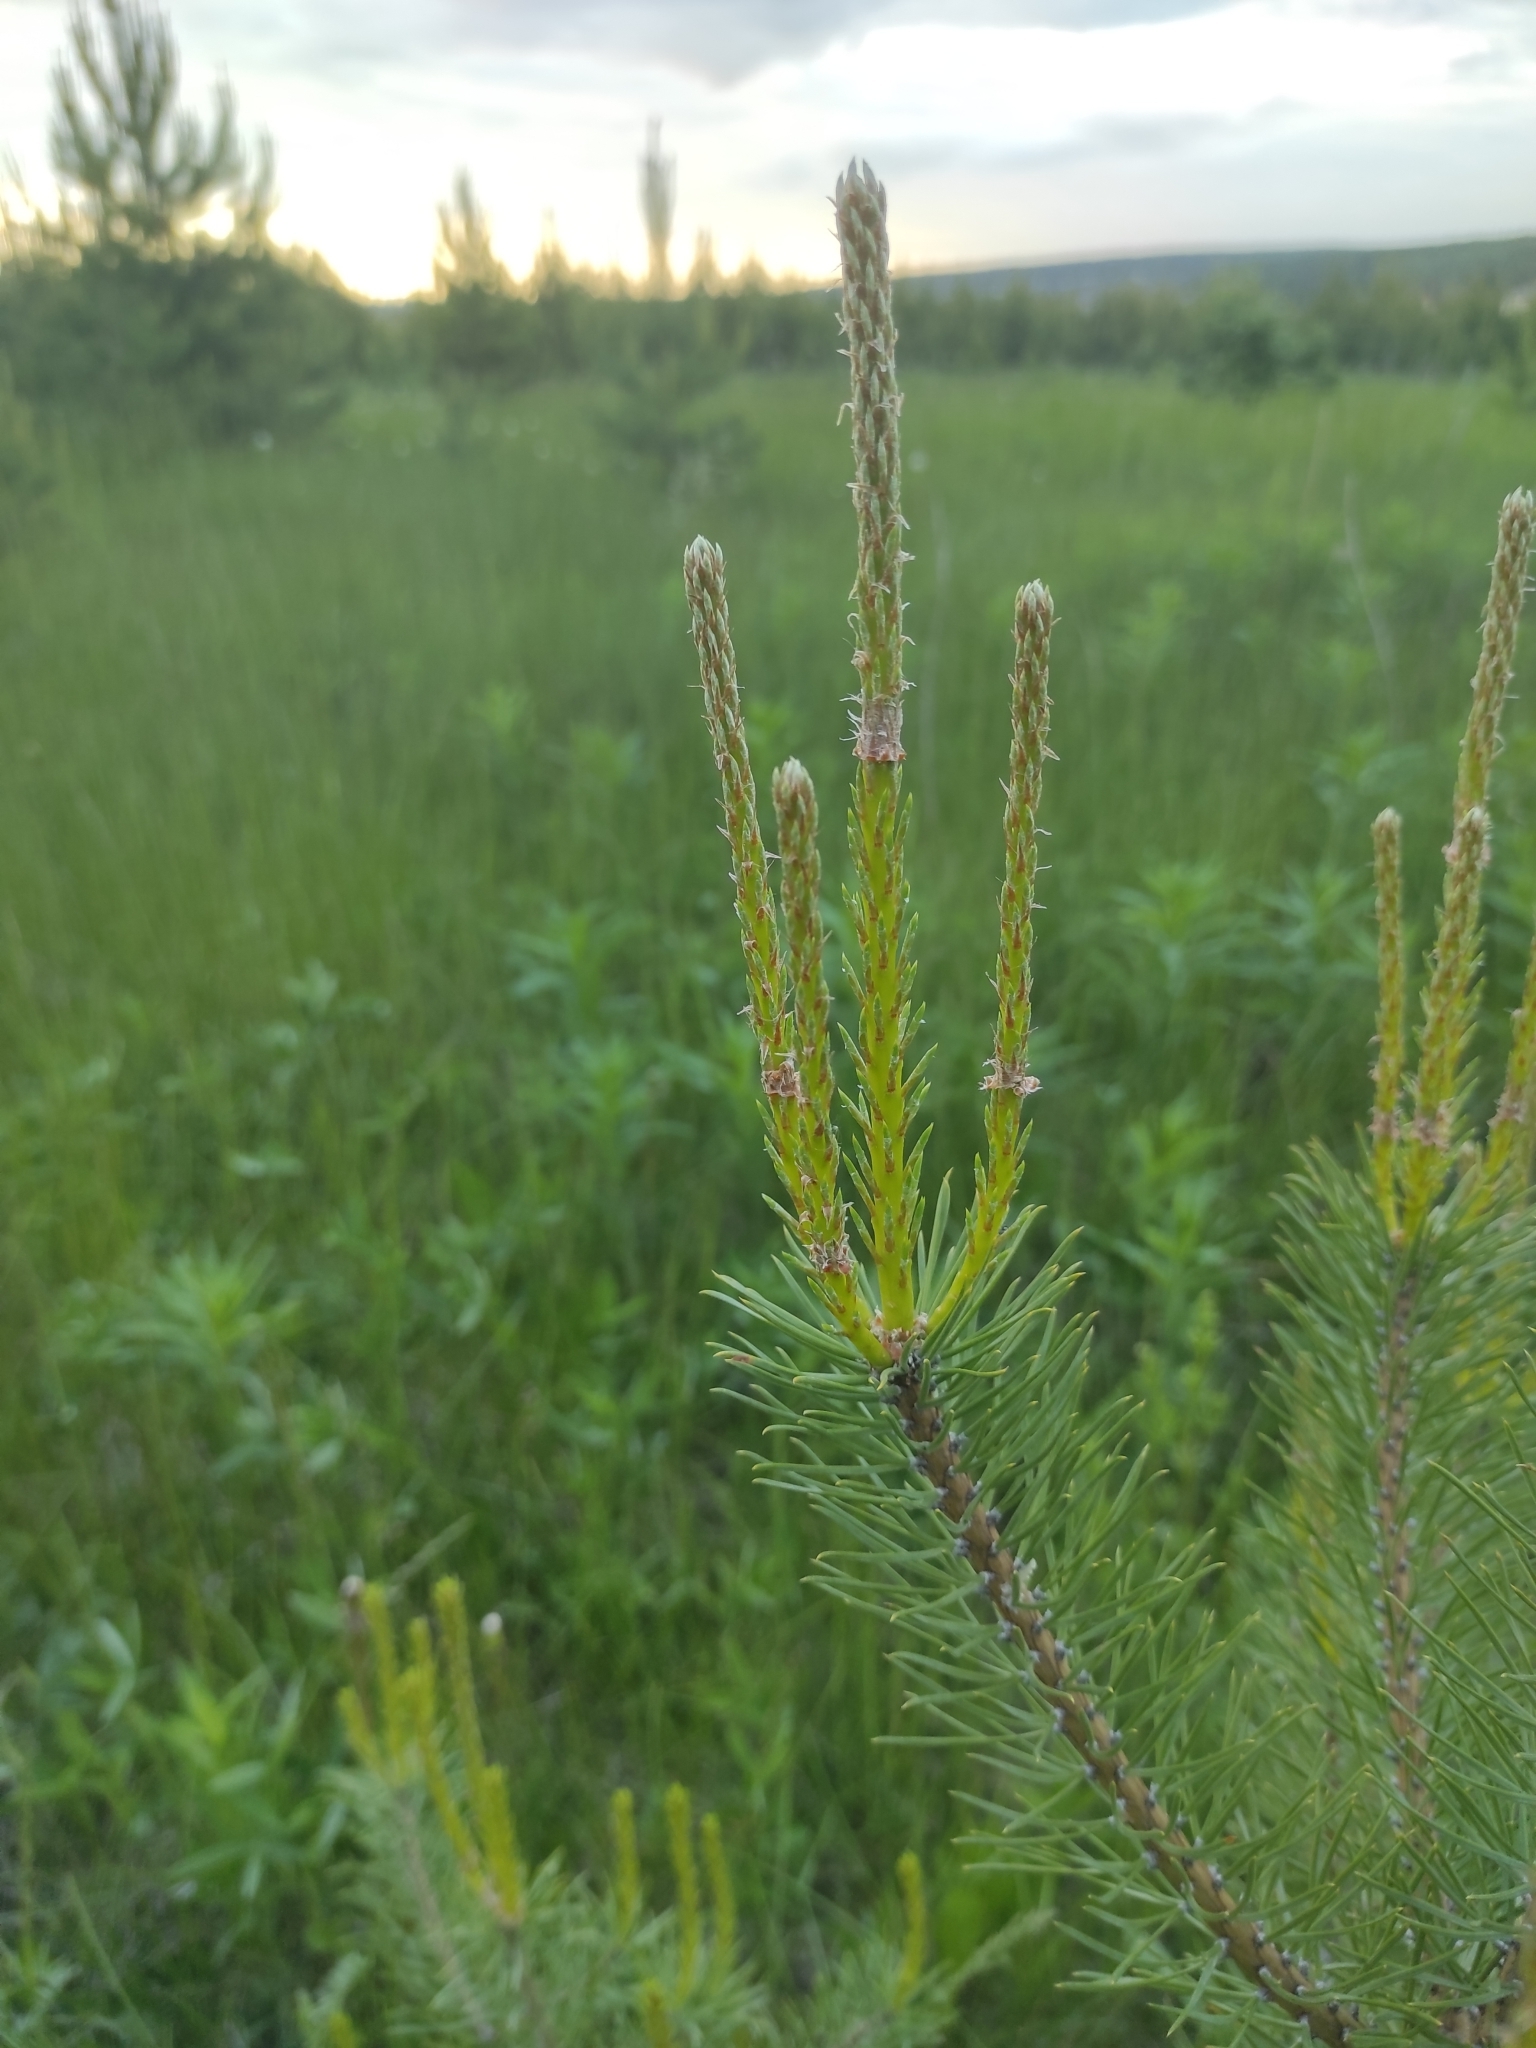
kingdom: Plantae
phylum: Tracheophyta
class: Pinopsida
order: Pinales
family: Pinaceae
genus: Pinus
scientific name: Pinus sylvestris
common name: Scots pine
